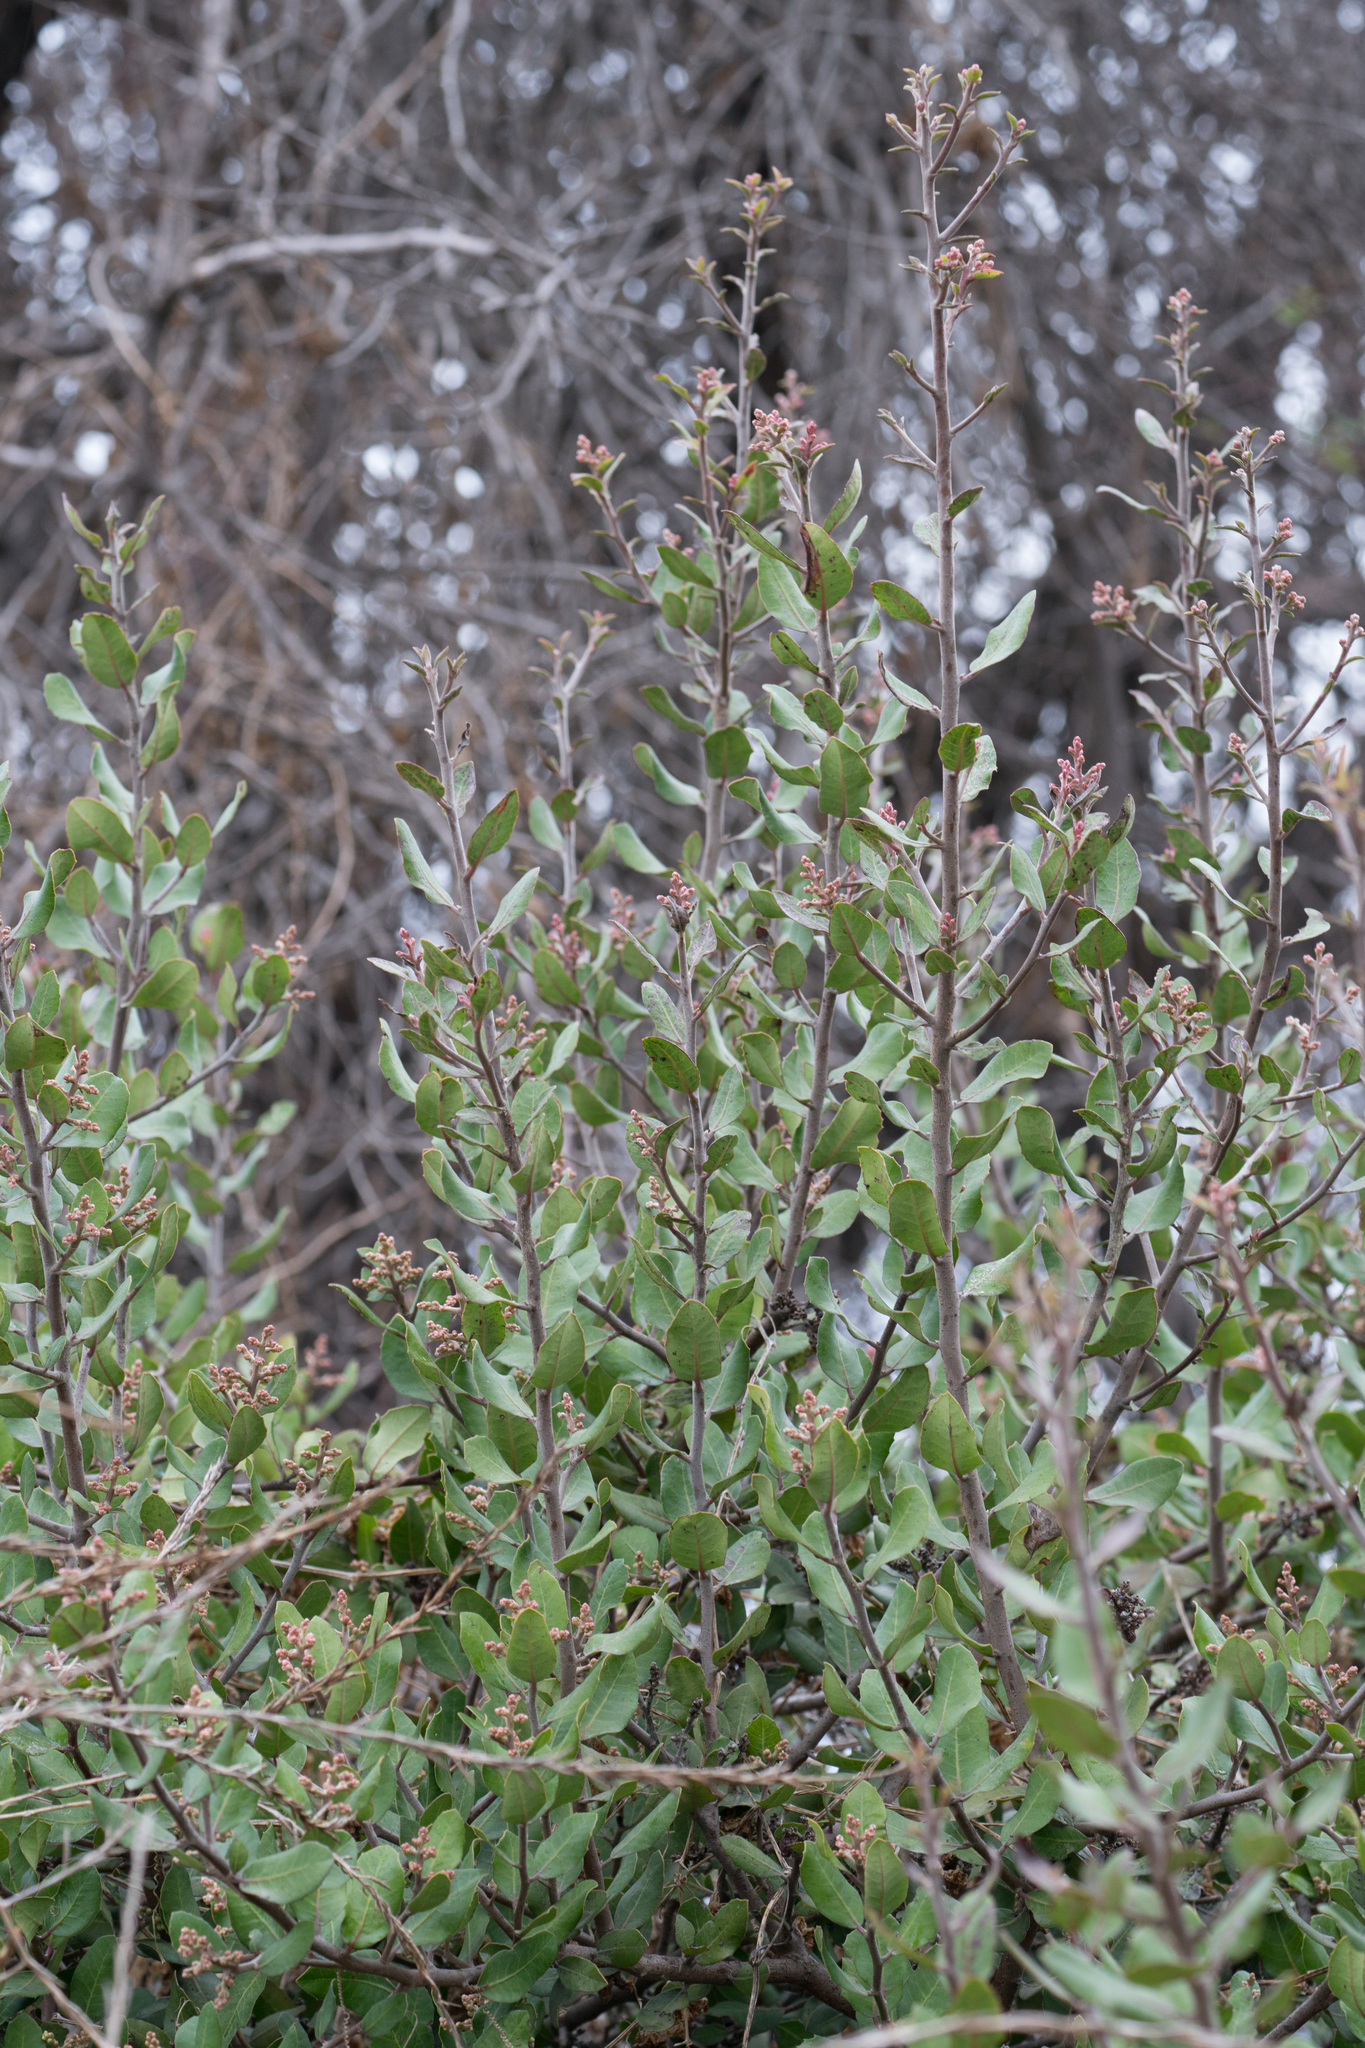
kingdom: Plantae
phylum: Tracheophyta
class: Magnoliopsida
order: Sapindales
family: Anacardiaceae
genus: Rhus
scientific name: Rhus integrifolia
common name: Lemonade sumac
